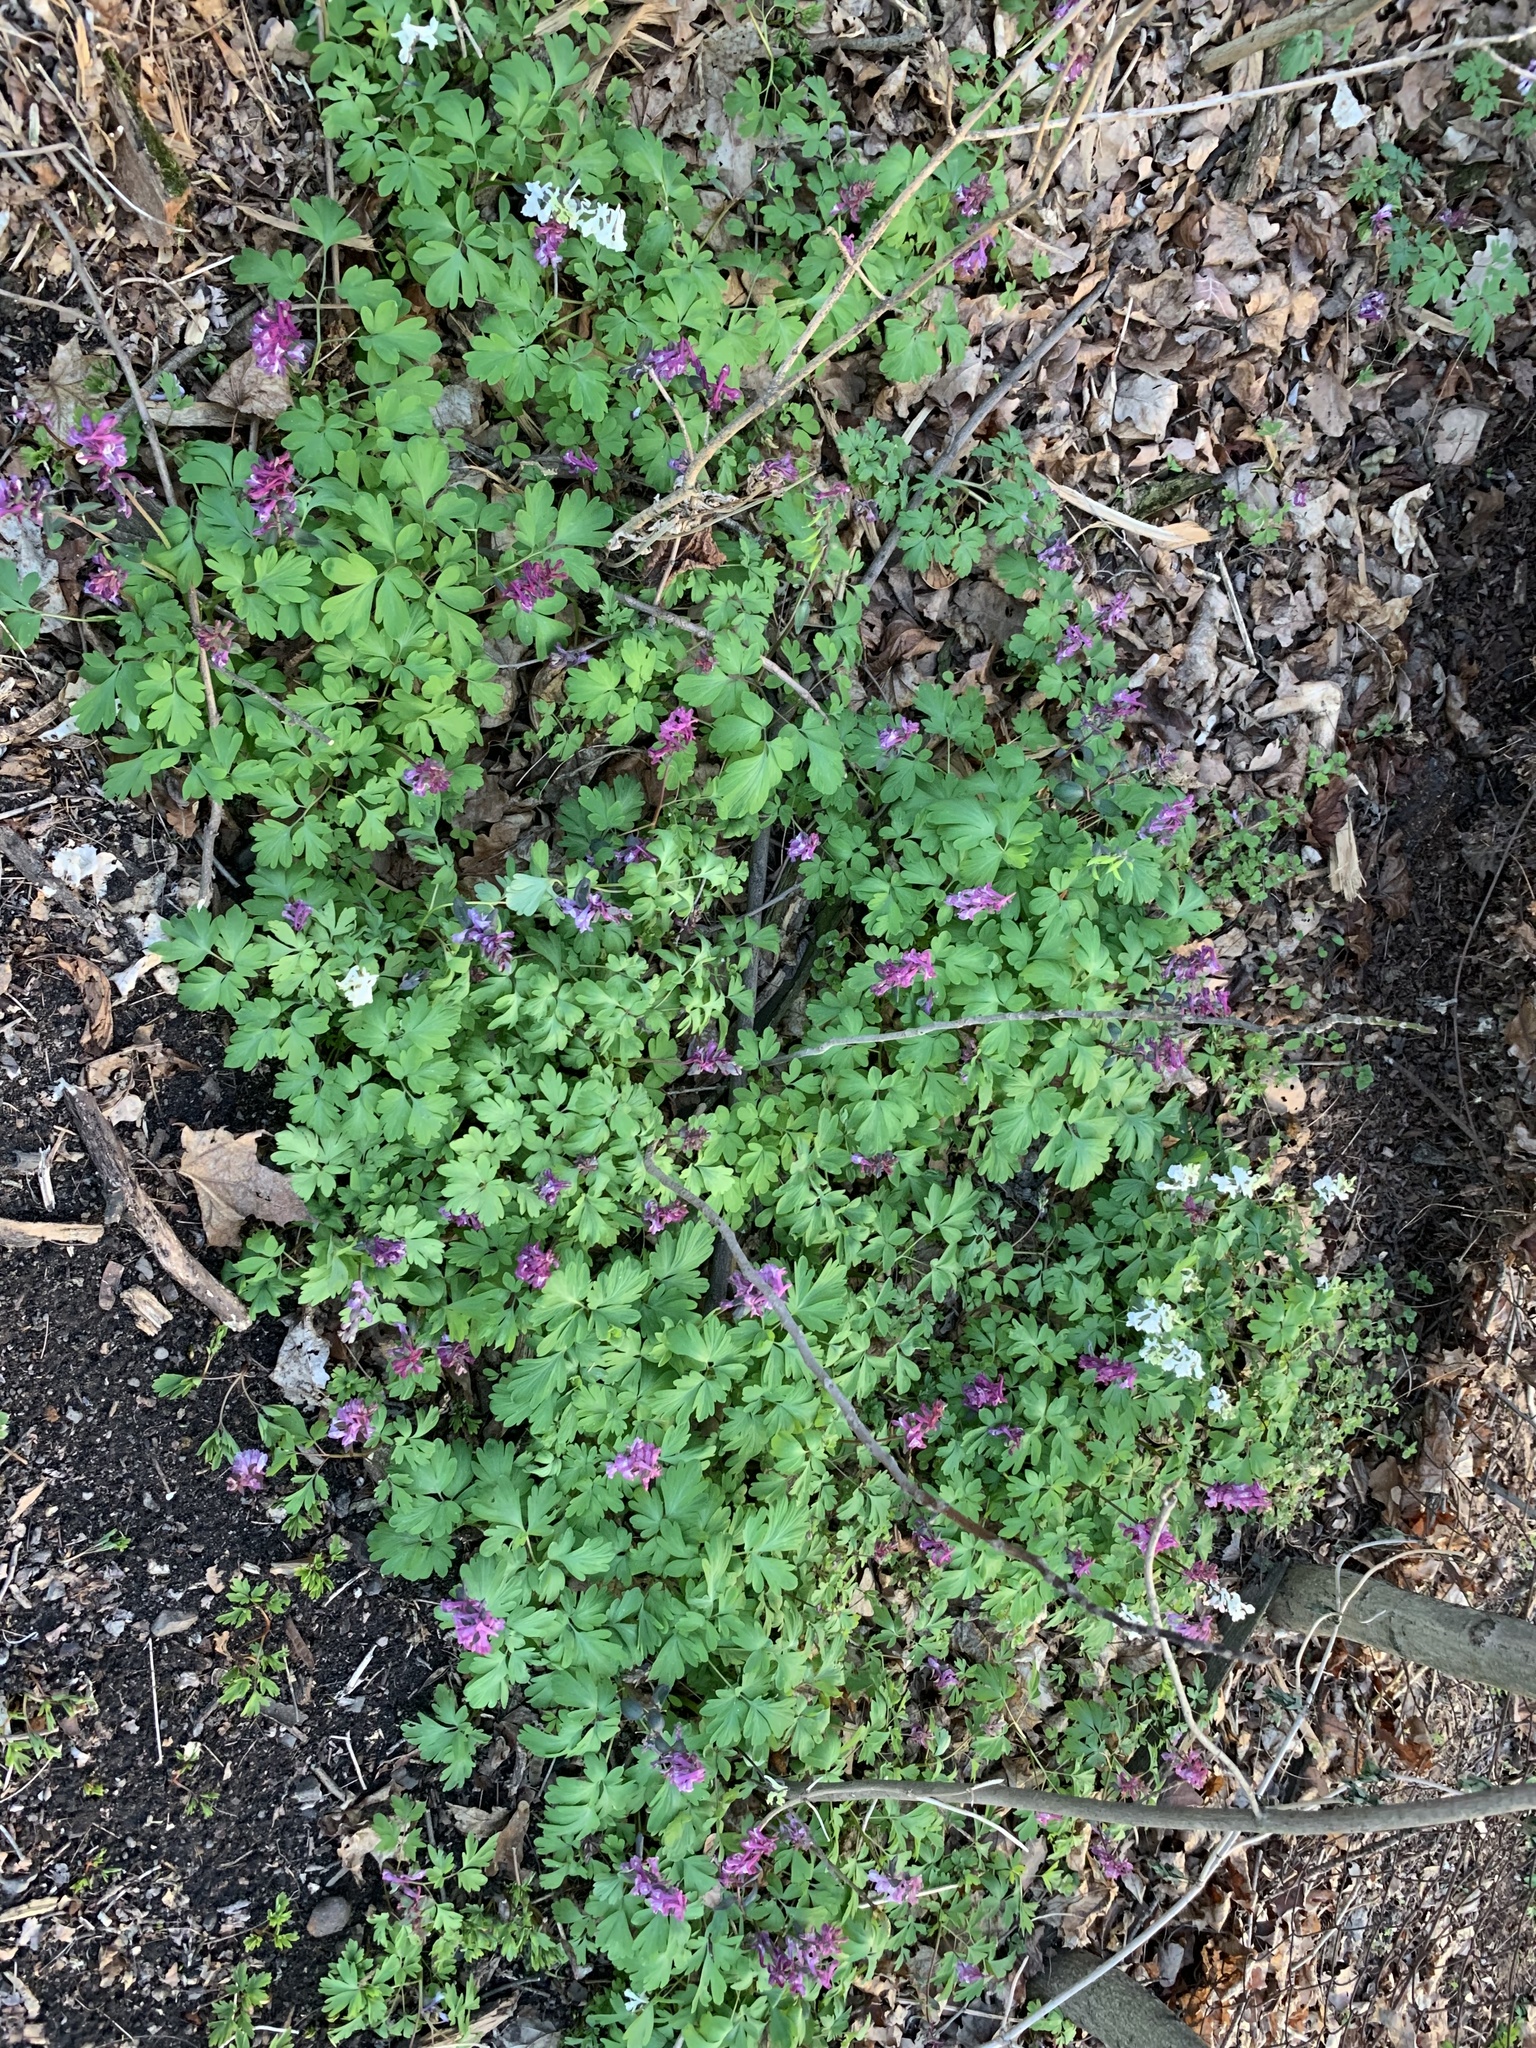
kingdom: Plantae
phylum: Tracheophyta
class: Magnoliopsida
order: Ranunculales
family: Papaveraceae
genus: Corydalis
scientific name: Corydalis cava
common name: Hollowroot
